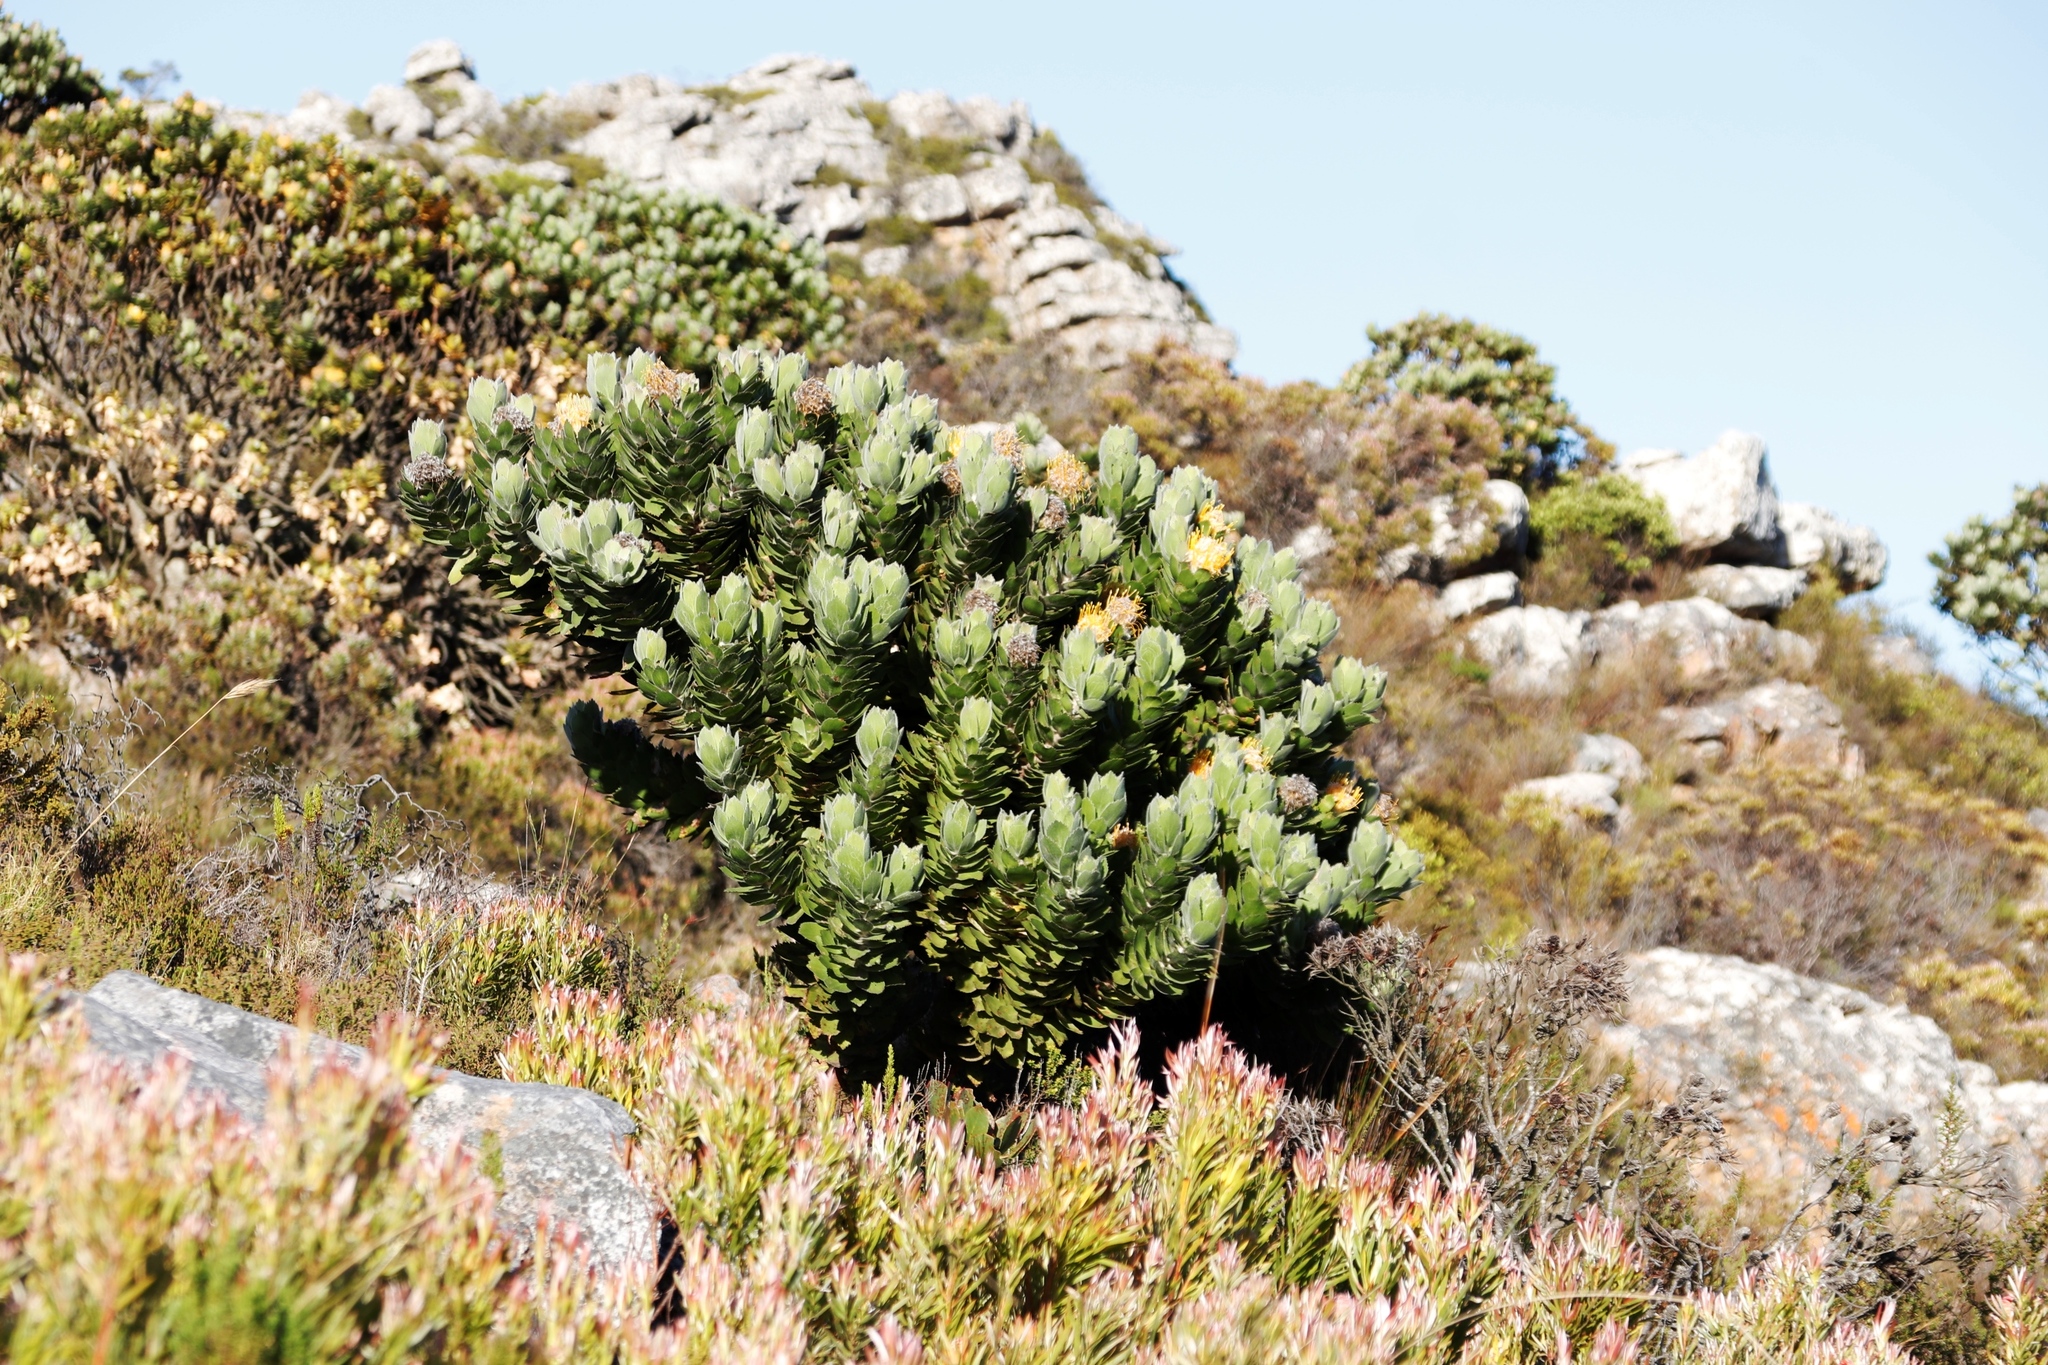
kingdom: Plantae
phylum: Tracheophyta
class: Magnoliopsida
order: Proteales
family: Proteaceae
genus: Leucospermum
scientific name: Leucospermum conocarpodendron
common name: Tree pincushion
